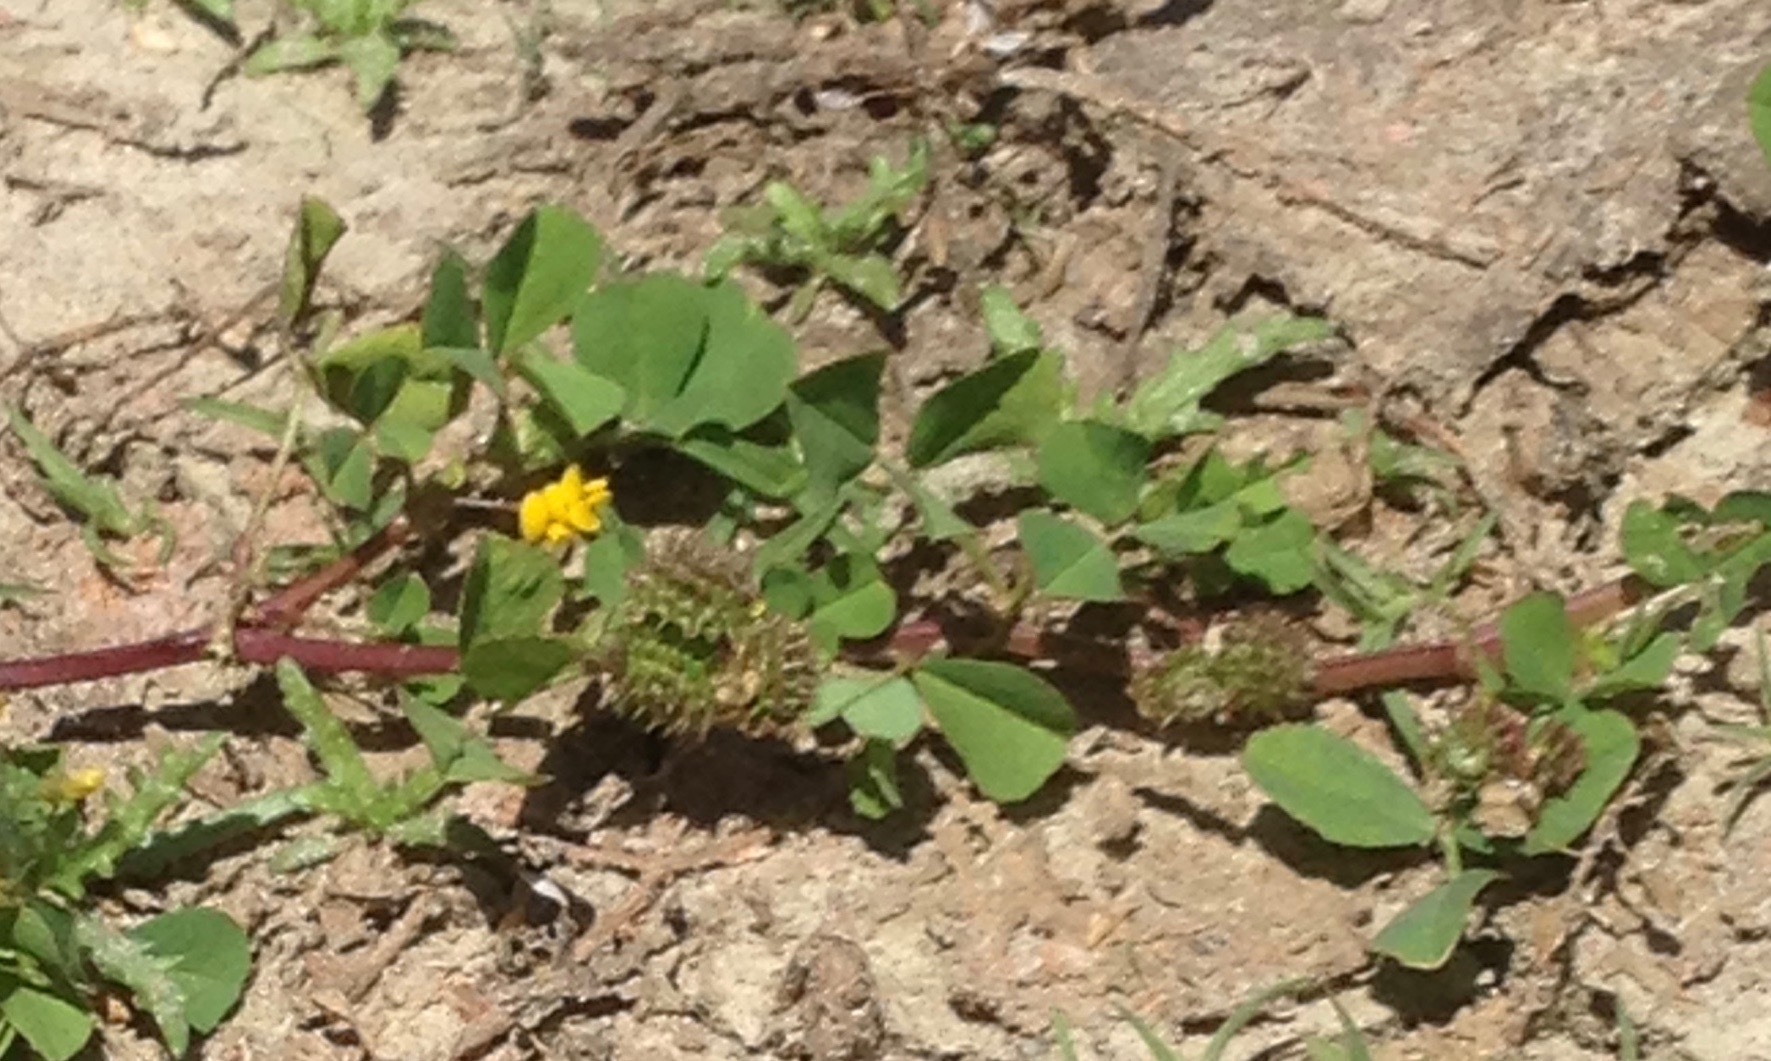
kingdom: Plantae
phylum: Tracheophyta
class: Magnoliopsida
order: Fabales
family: Fabaceae
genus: Medicago
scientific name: Medicago polymorpha
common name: Burclover
